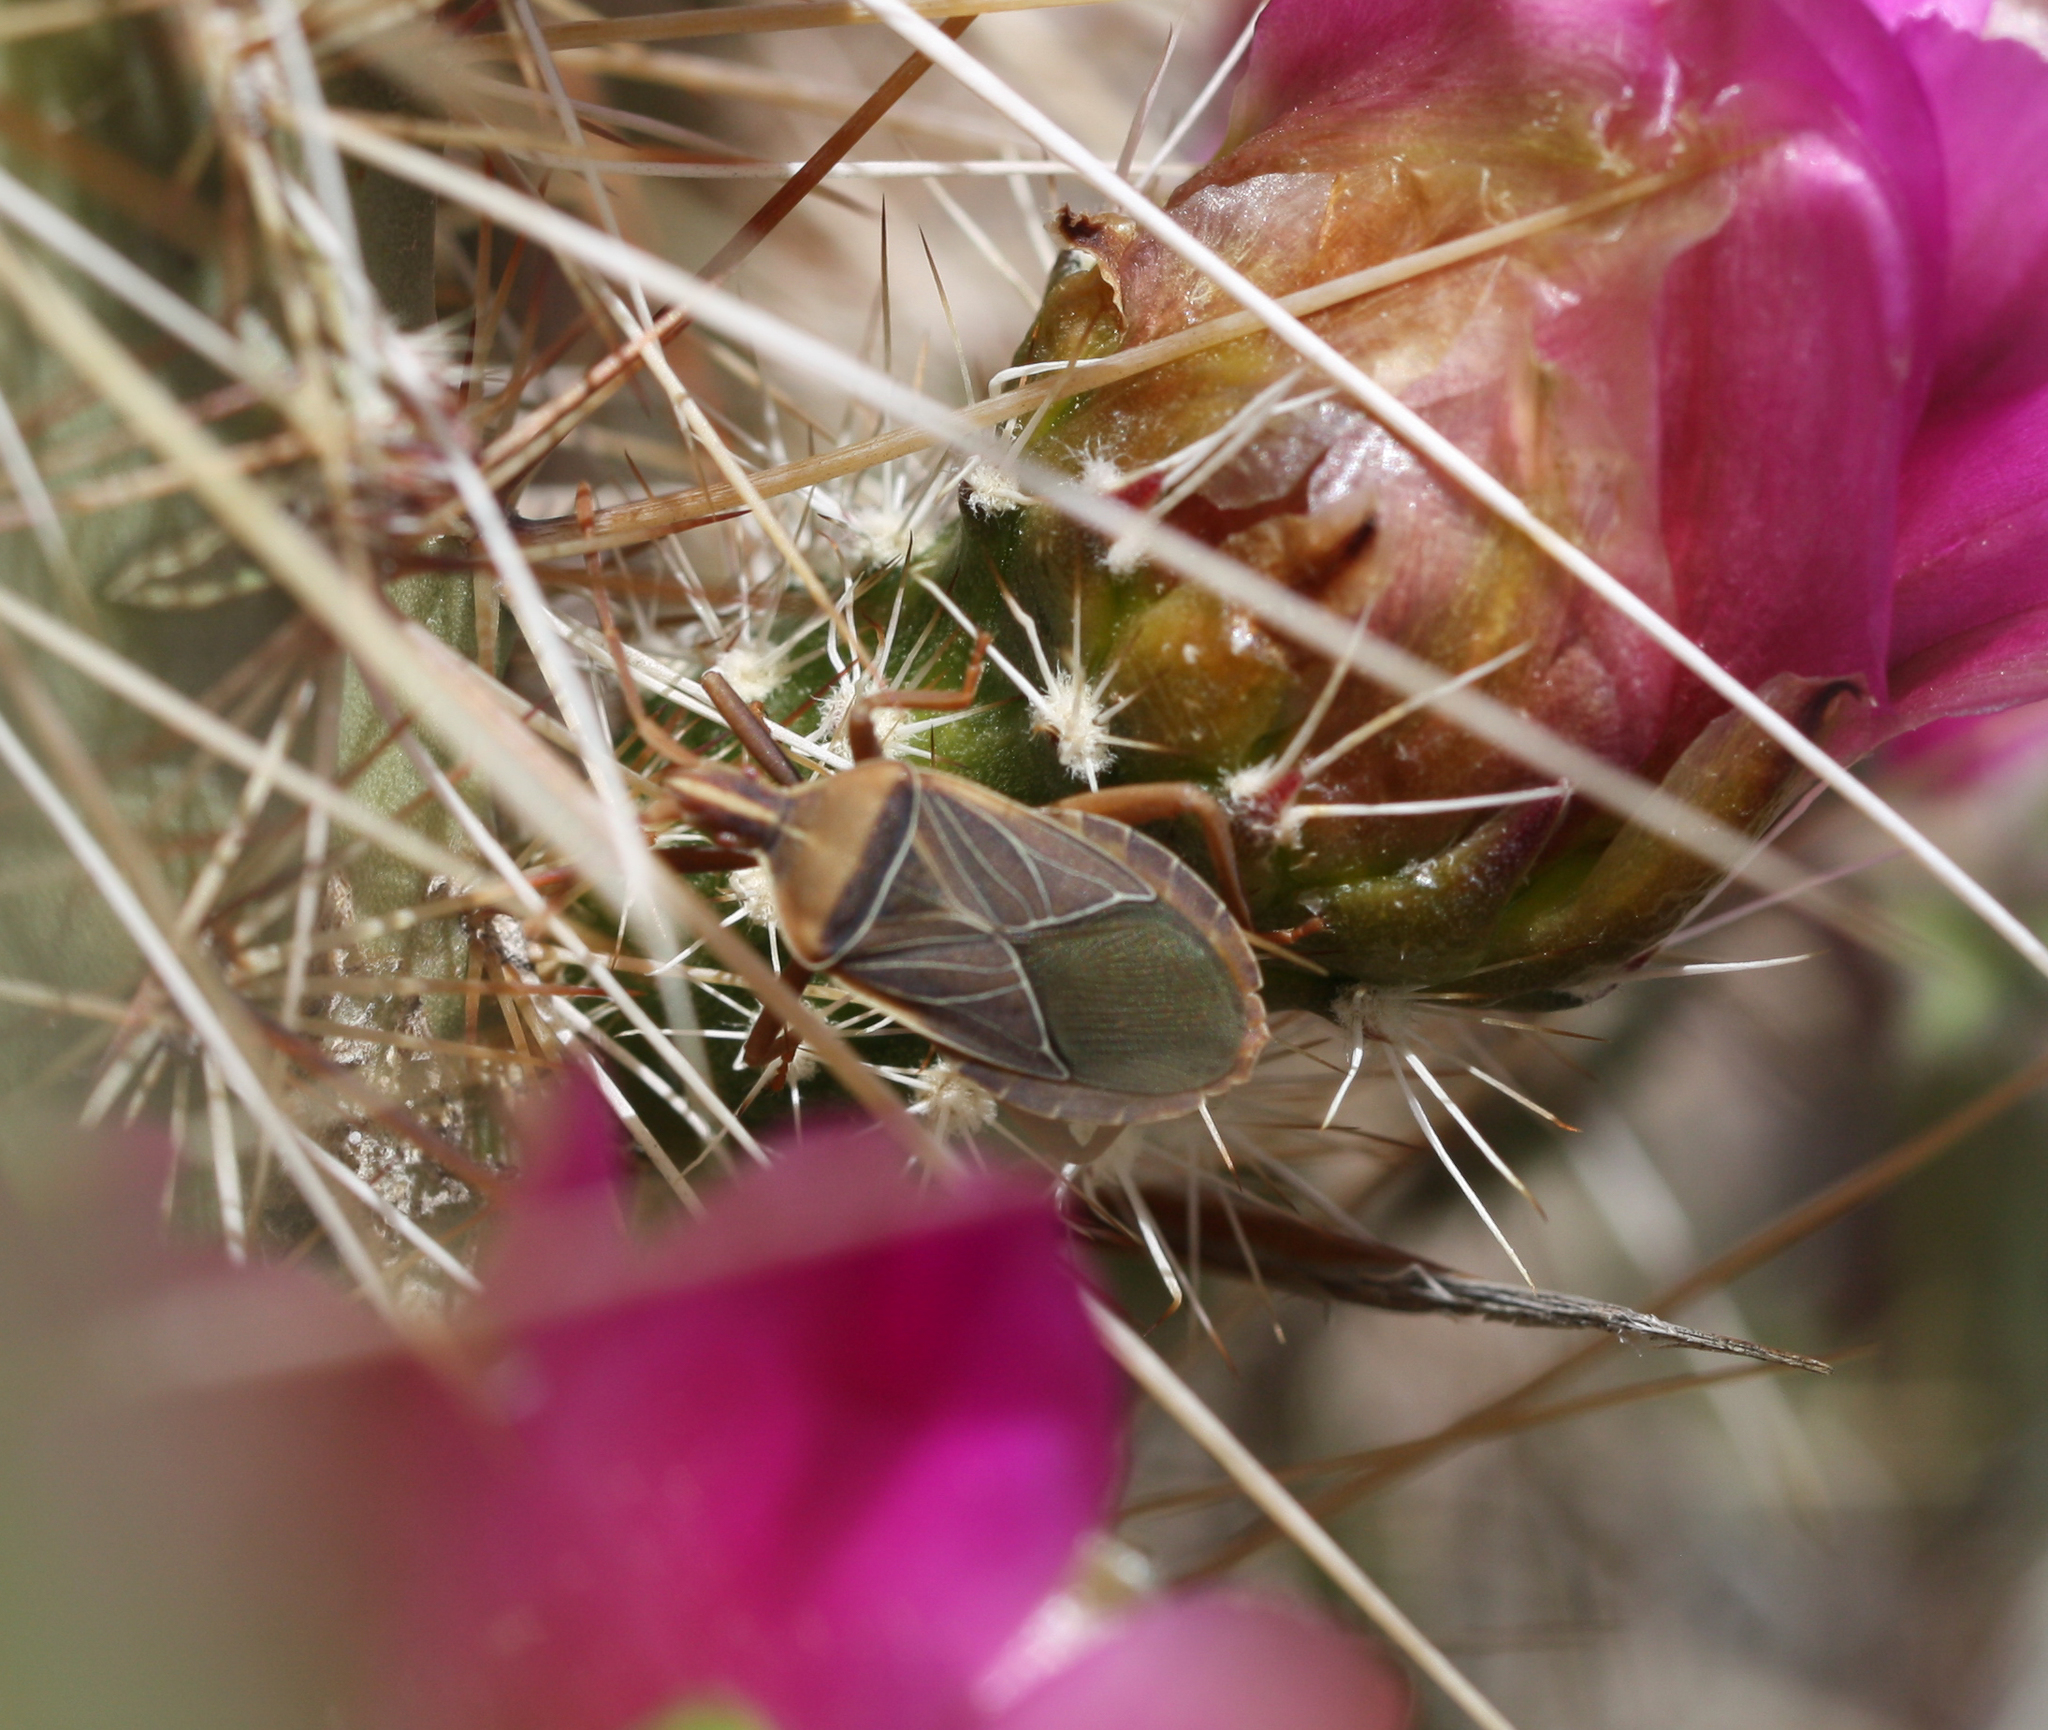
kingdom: Animalia
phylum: Arthropoda
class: Insecta
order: Hemiptera
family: Coreidae
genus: Chelinidea
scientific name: Chelinidea vittiger
